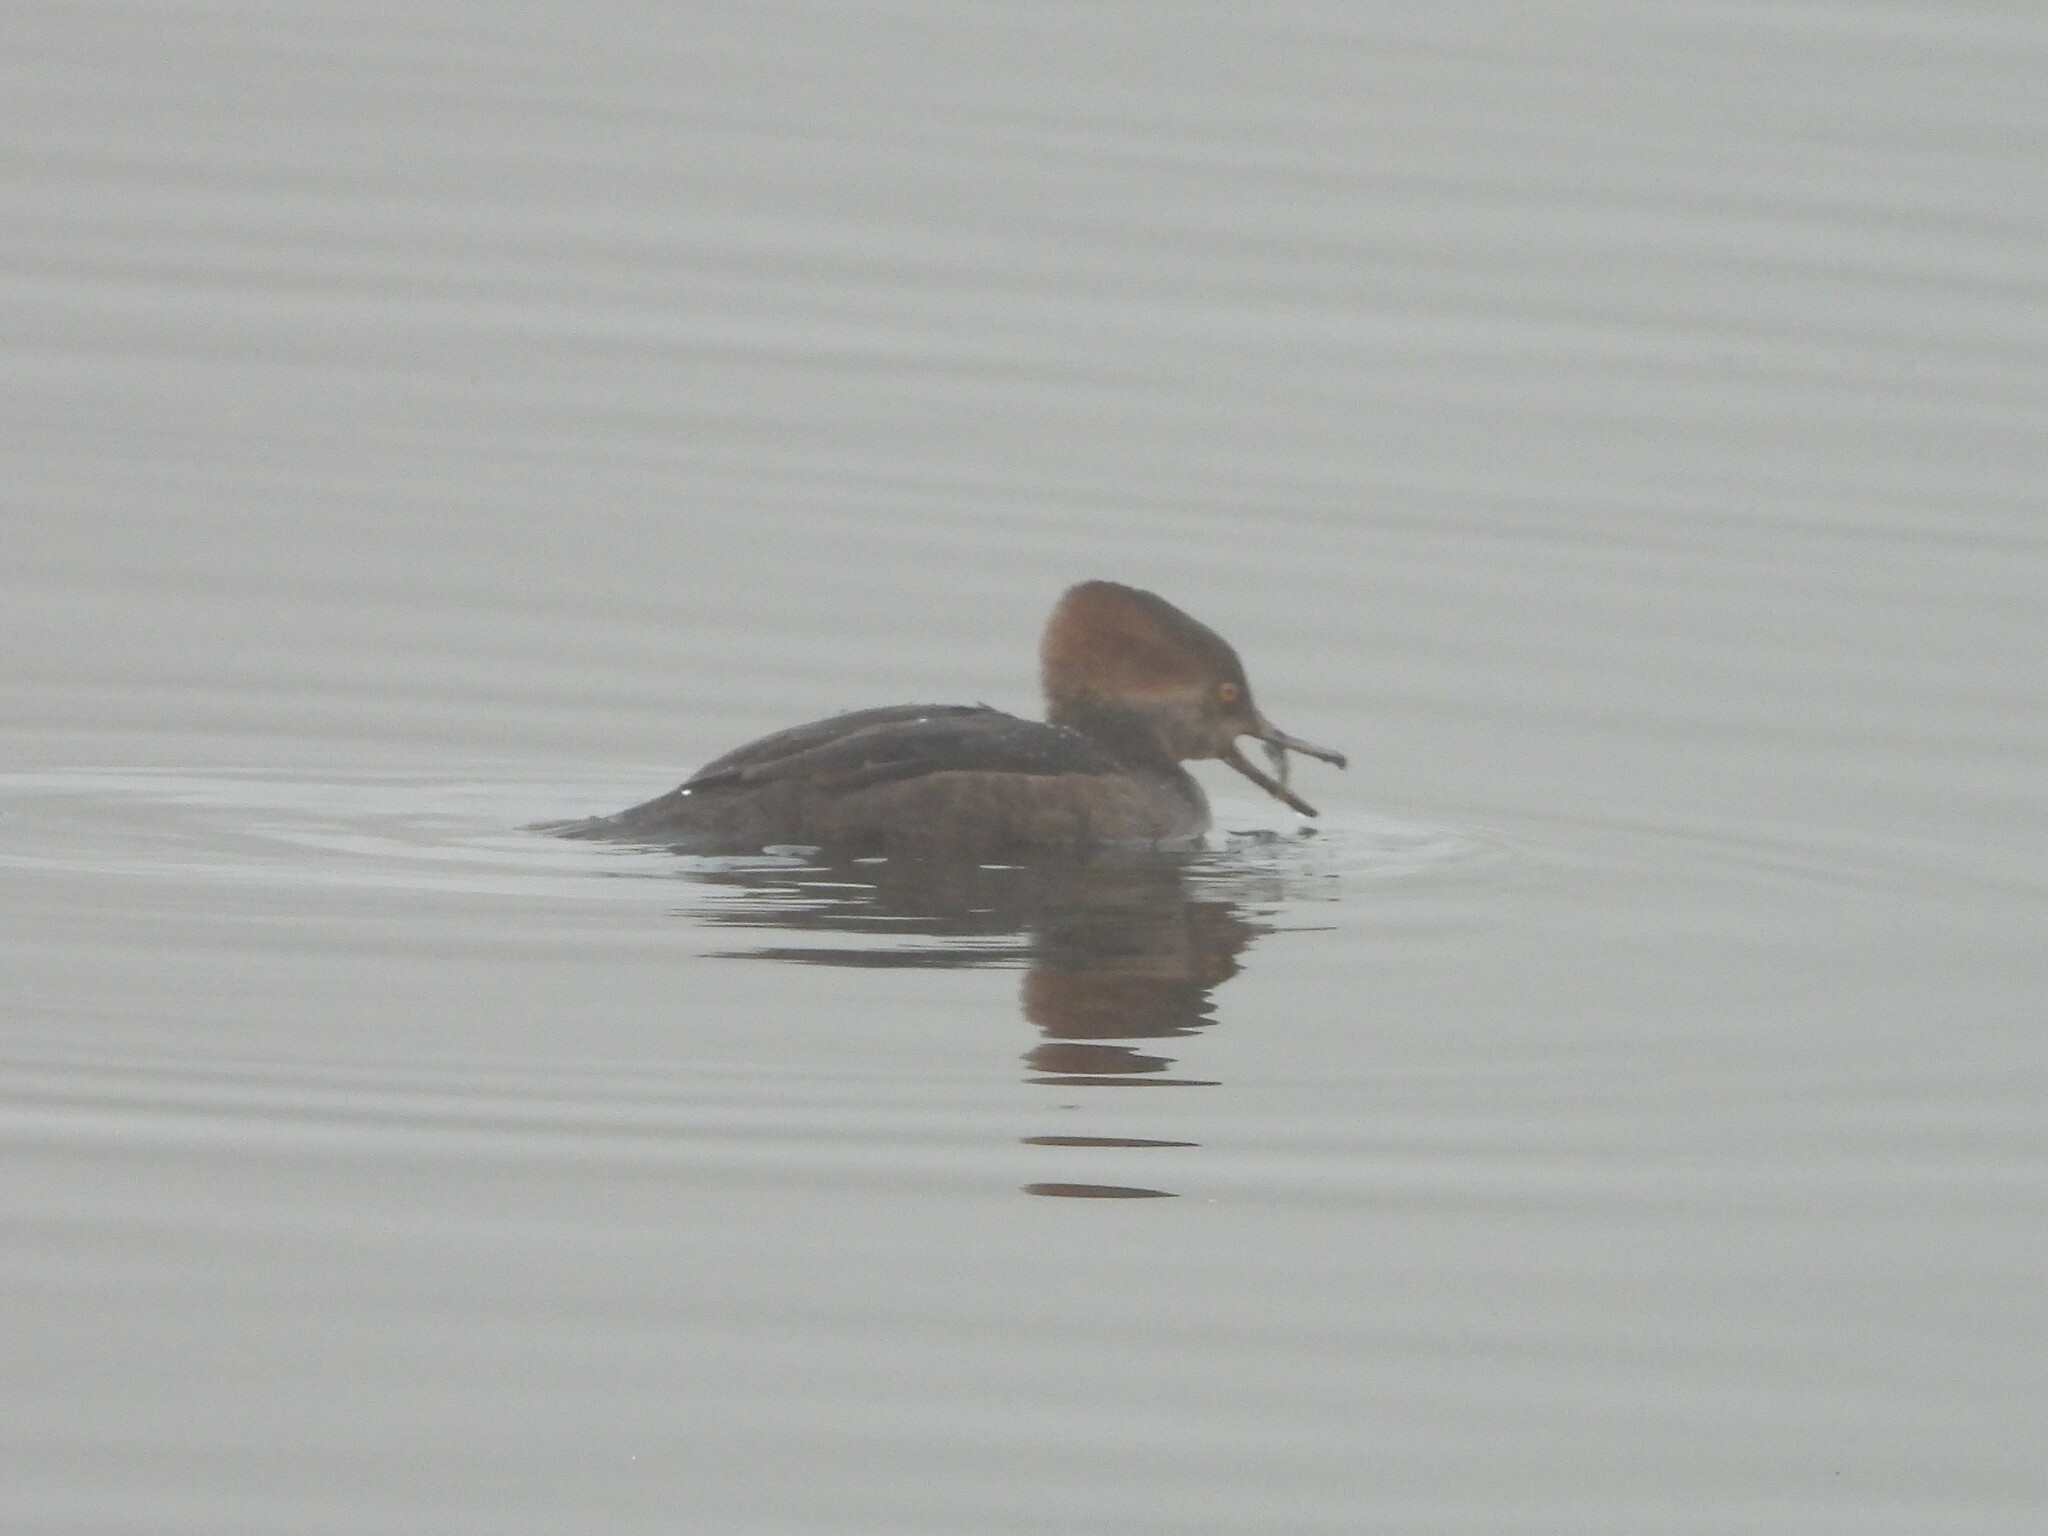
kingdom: Animalia
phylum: Chordata
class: Aves
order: Anseriformes
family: Anatidae
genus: Lophodytes
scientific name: Lophodytes cucullatus
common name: Hooded merganser
